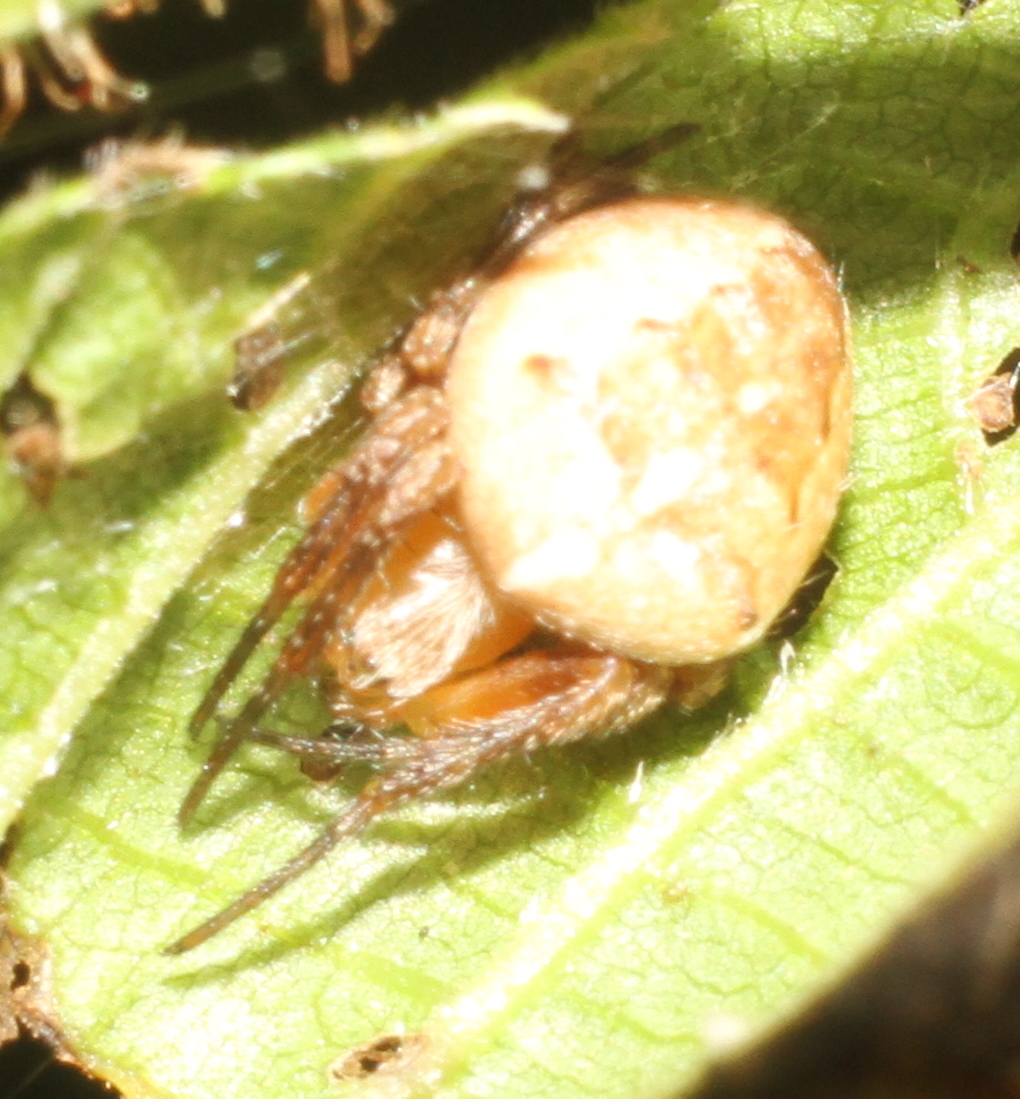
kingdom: Animalia
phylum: Arthropoda
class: Arachnida
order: Araneae
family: Araneidae
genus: Araneus
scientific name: Araneus diadematus
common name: Cross orbweaver
